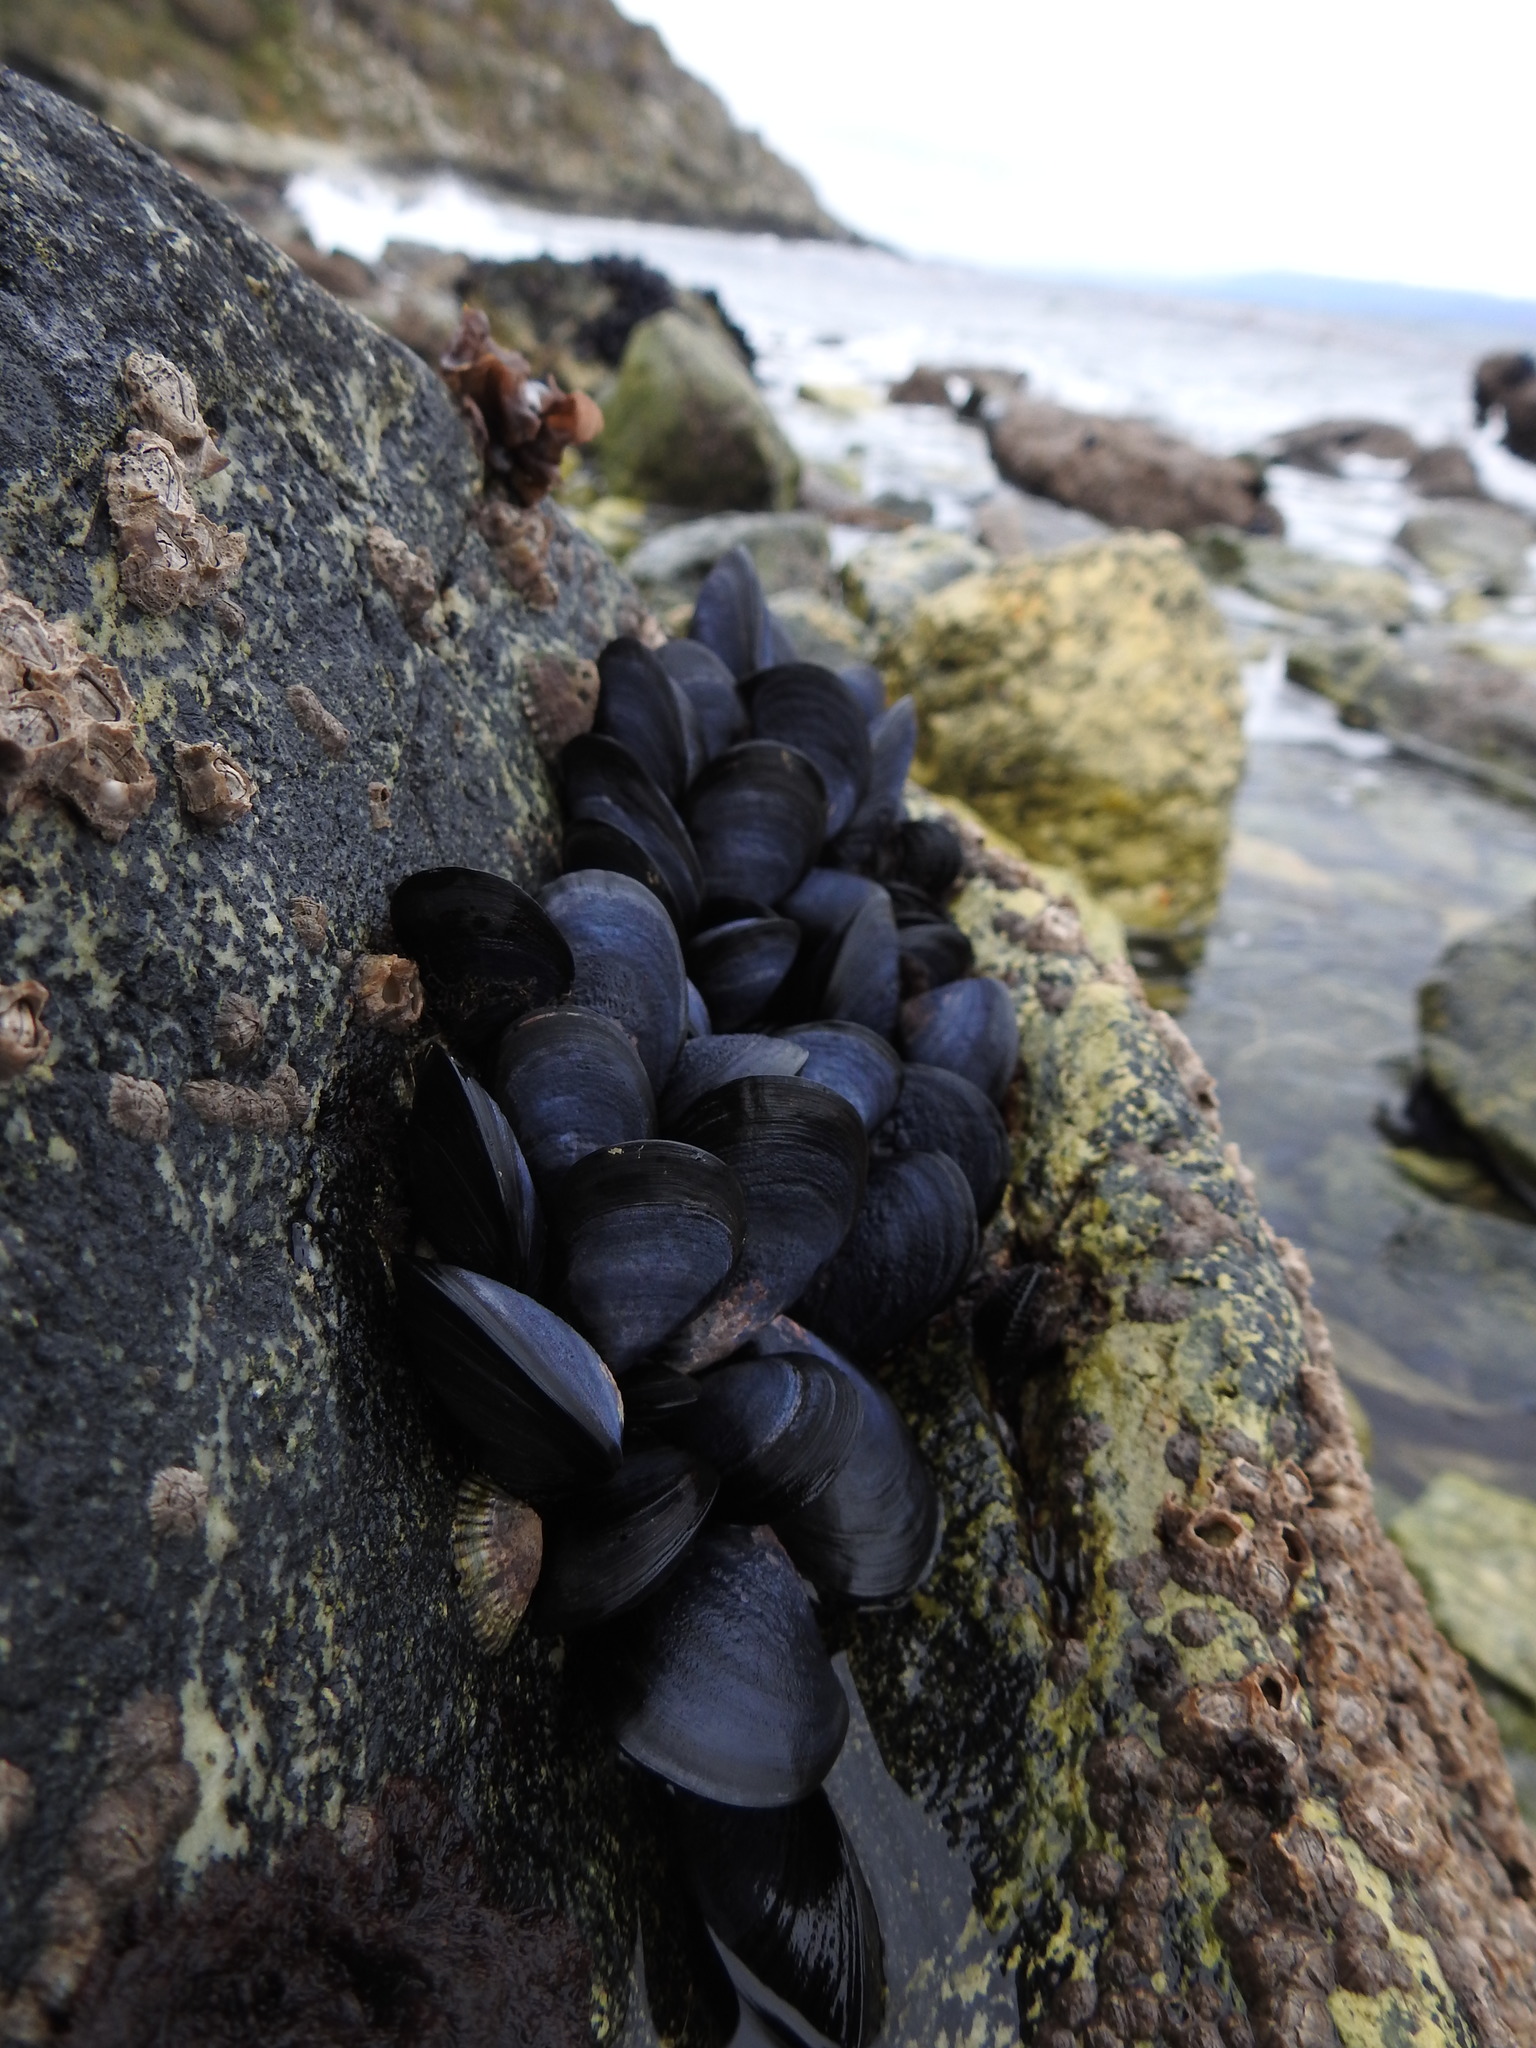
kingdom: Animalia
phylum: Mollusca
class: Bivalvia
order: Mytilida
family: Mytilidae
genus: Mytilus
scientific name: Mytilus chilensis
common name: Chilean mussel
